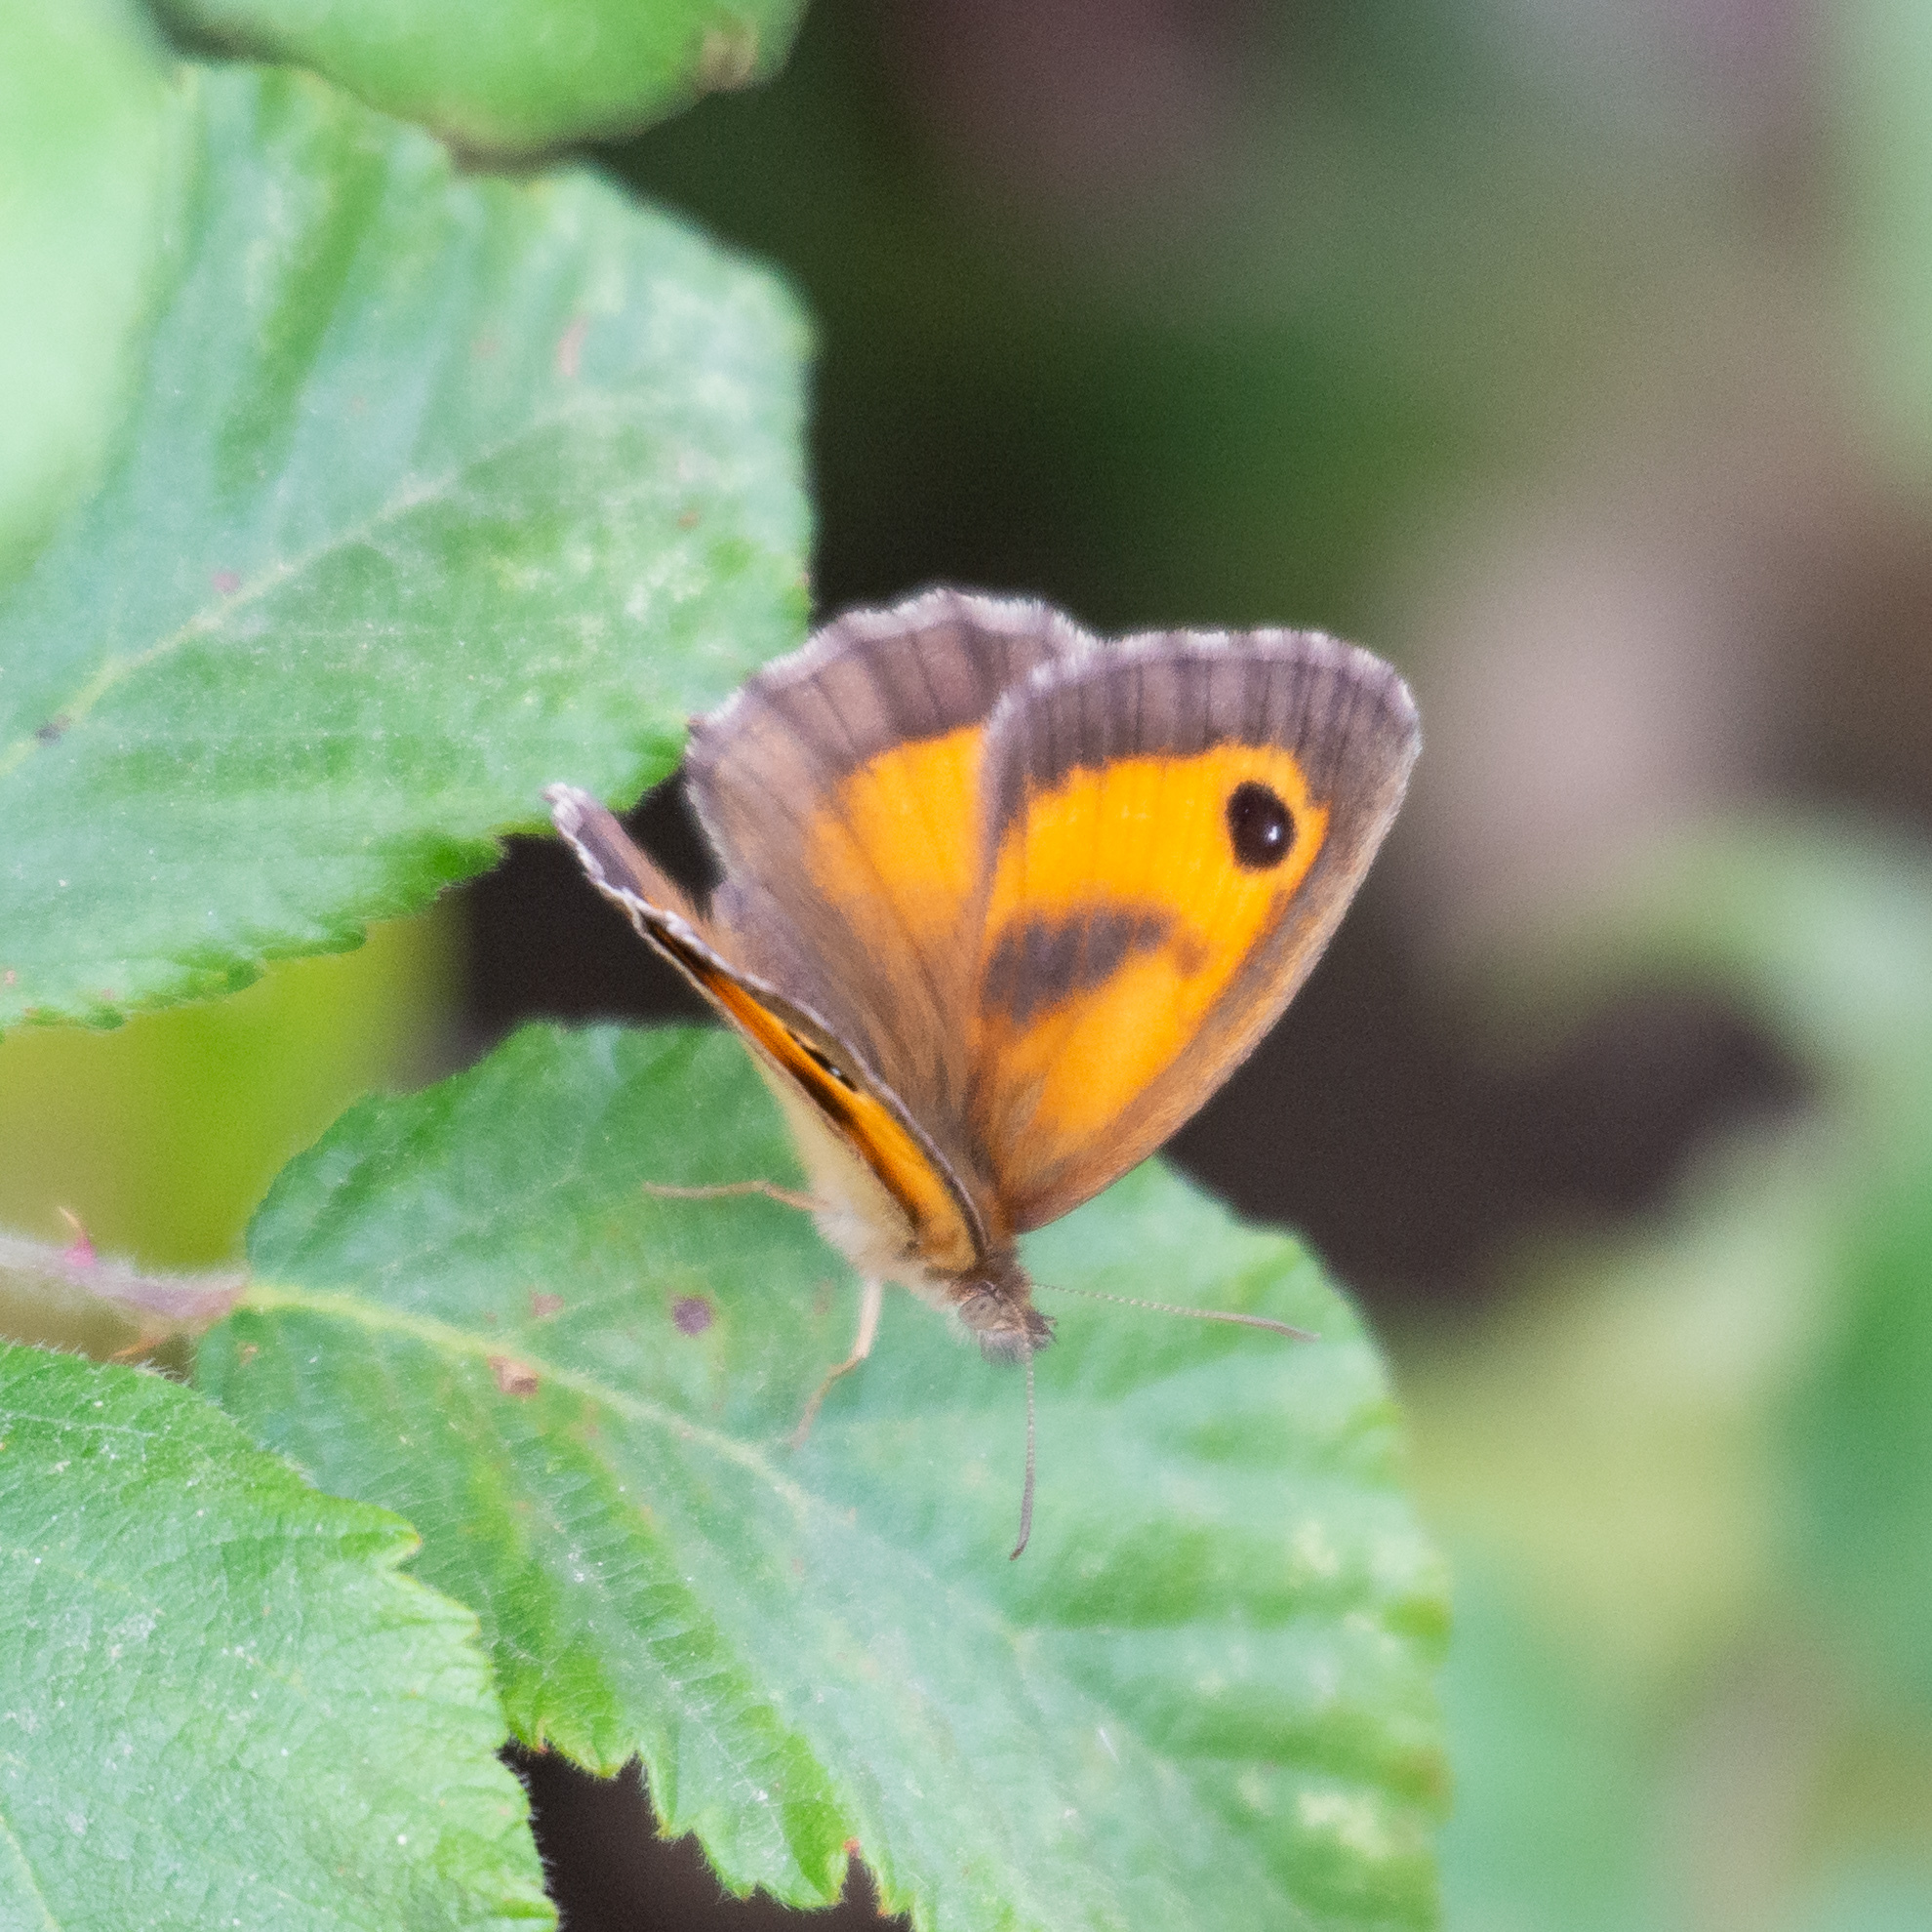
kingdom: Animalia
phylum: Arthropoda
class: Insecta
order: Lepidoptera
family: Nymphalidae
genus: Pyronia
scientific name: Pyronia tithonus
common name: Gatekeeper
